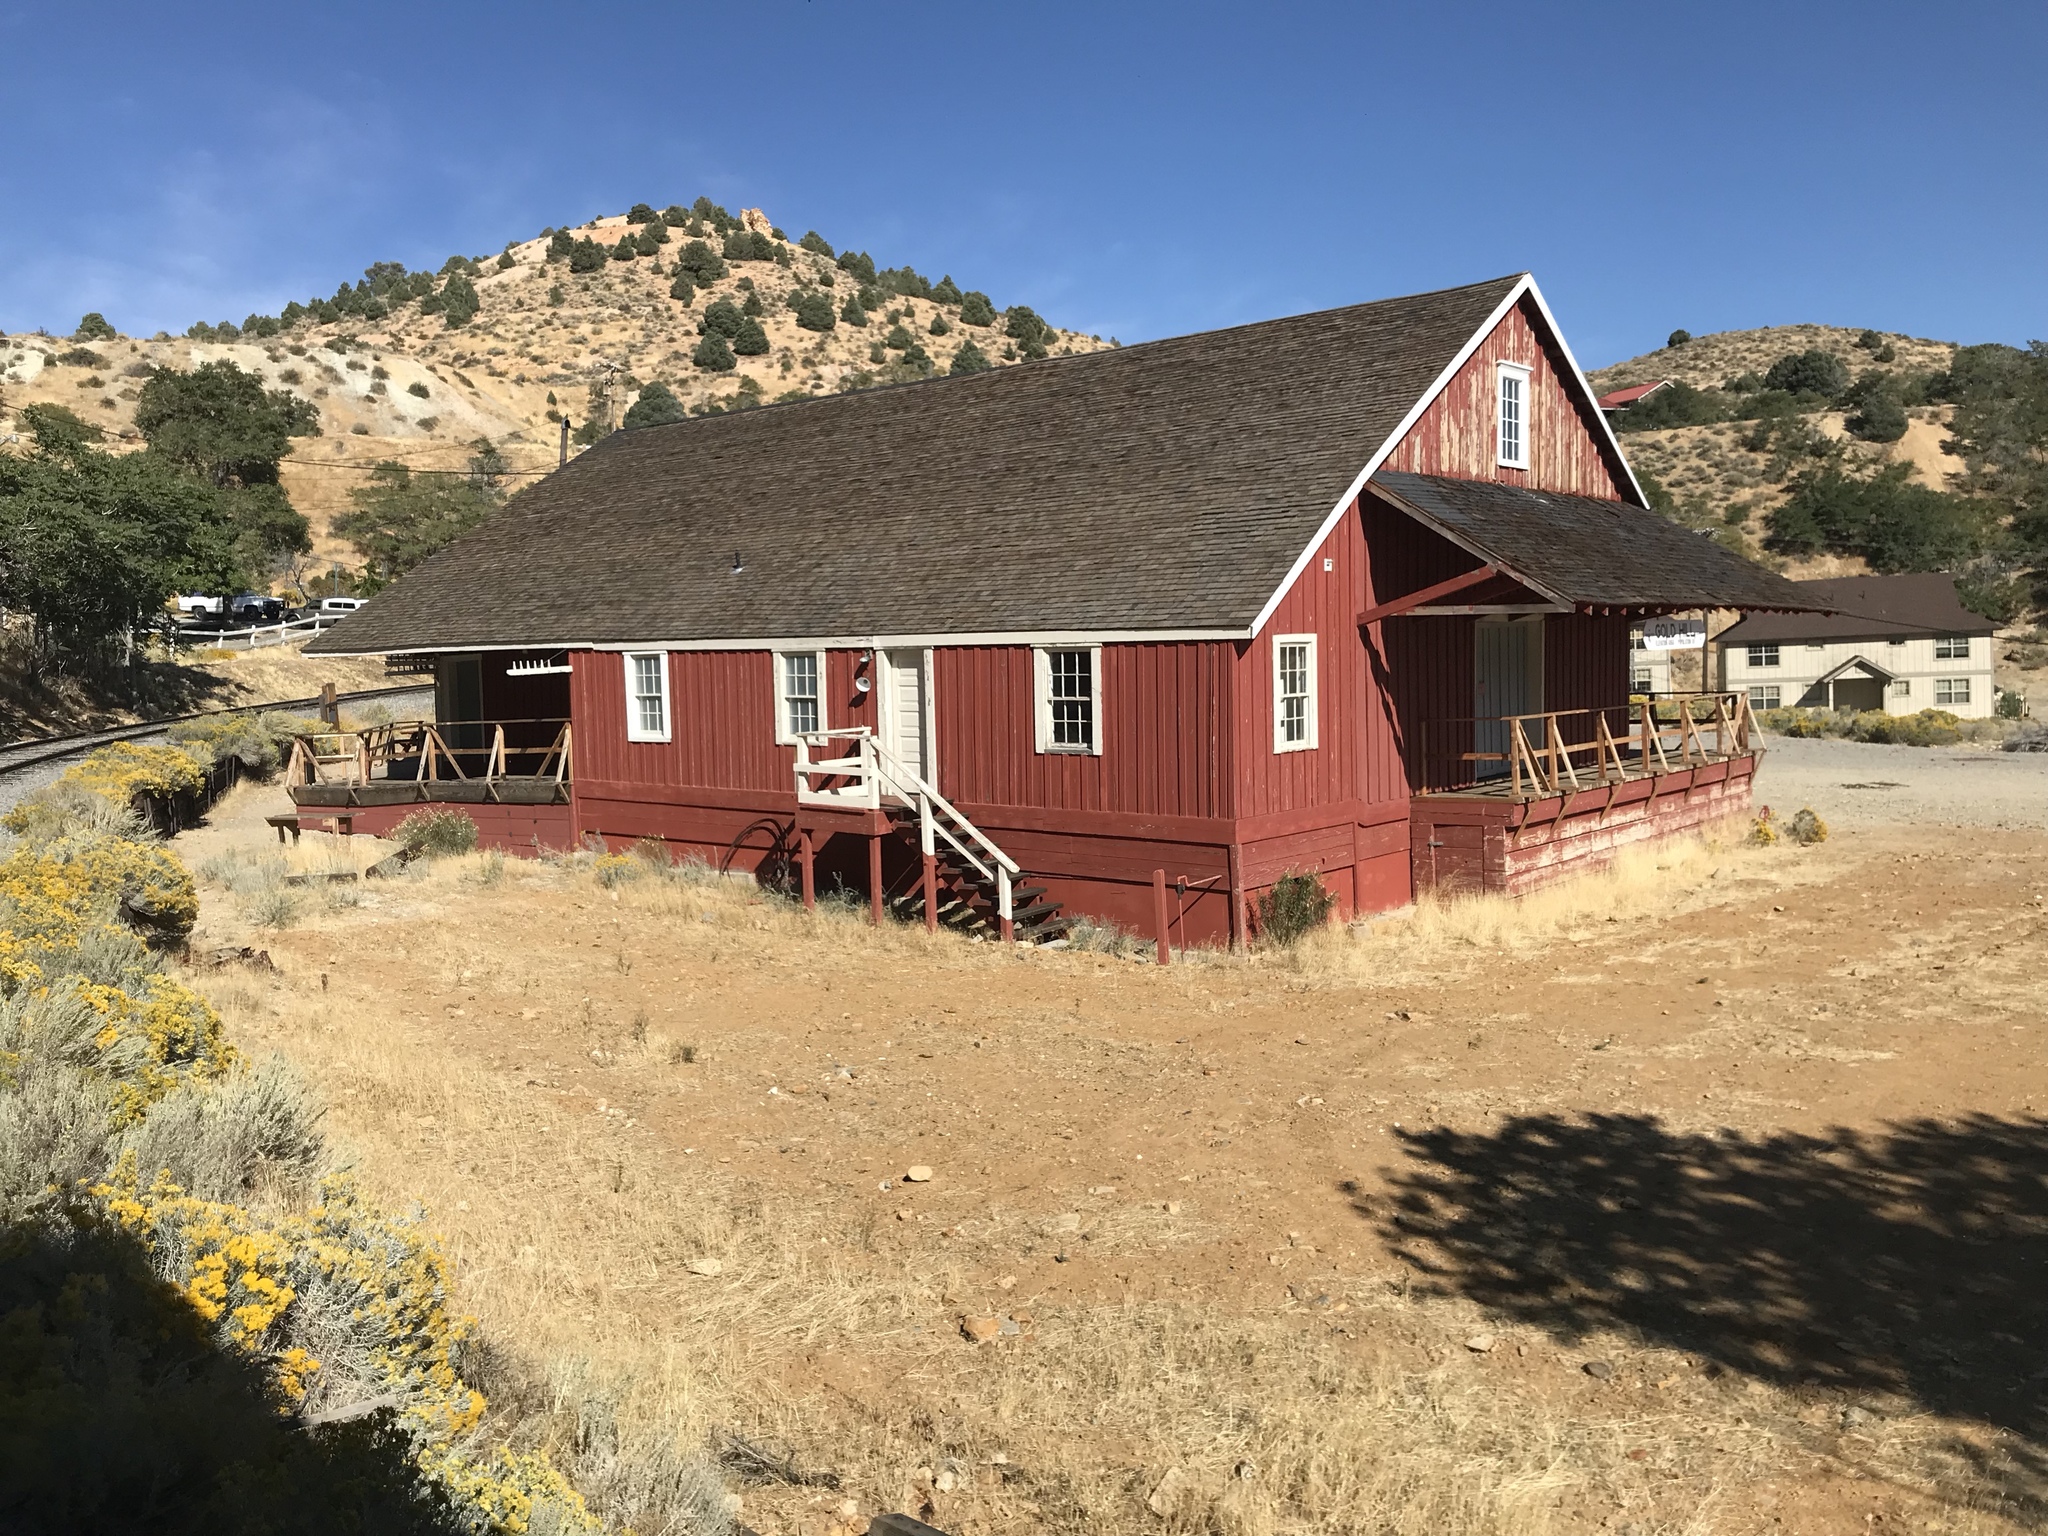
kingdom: Plantae
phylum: Tracheophyta
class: Magnoliopsida
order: Gentianales
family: Apocynaceae
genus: Asclepias
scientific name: Asclepias fascicularis
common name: Mexican milkweed
